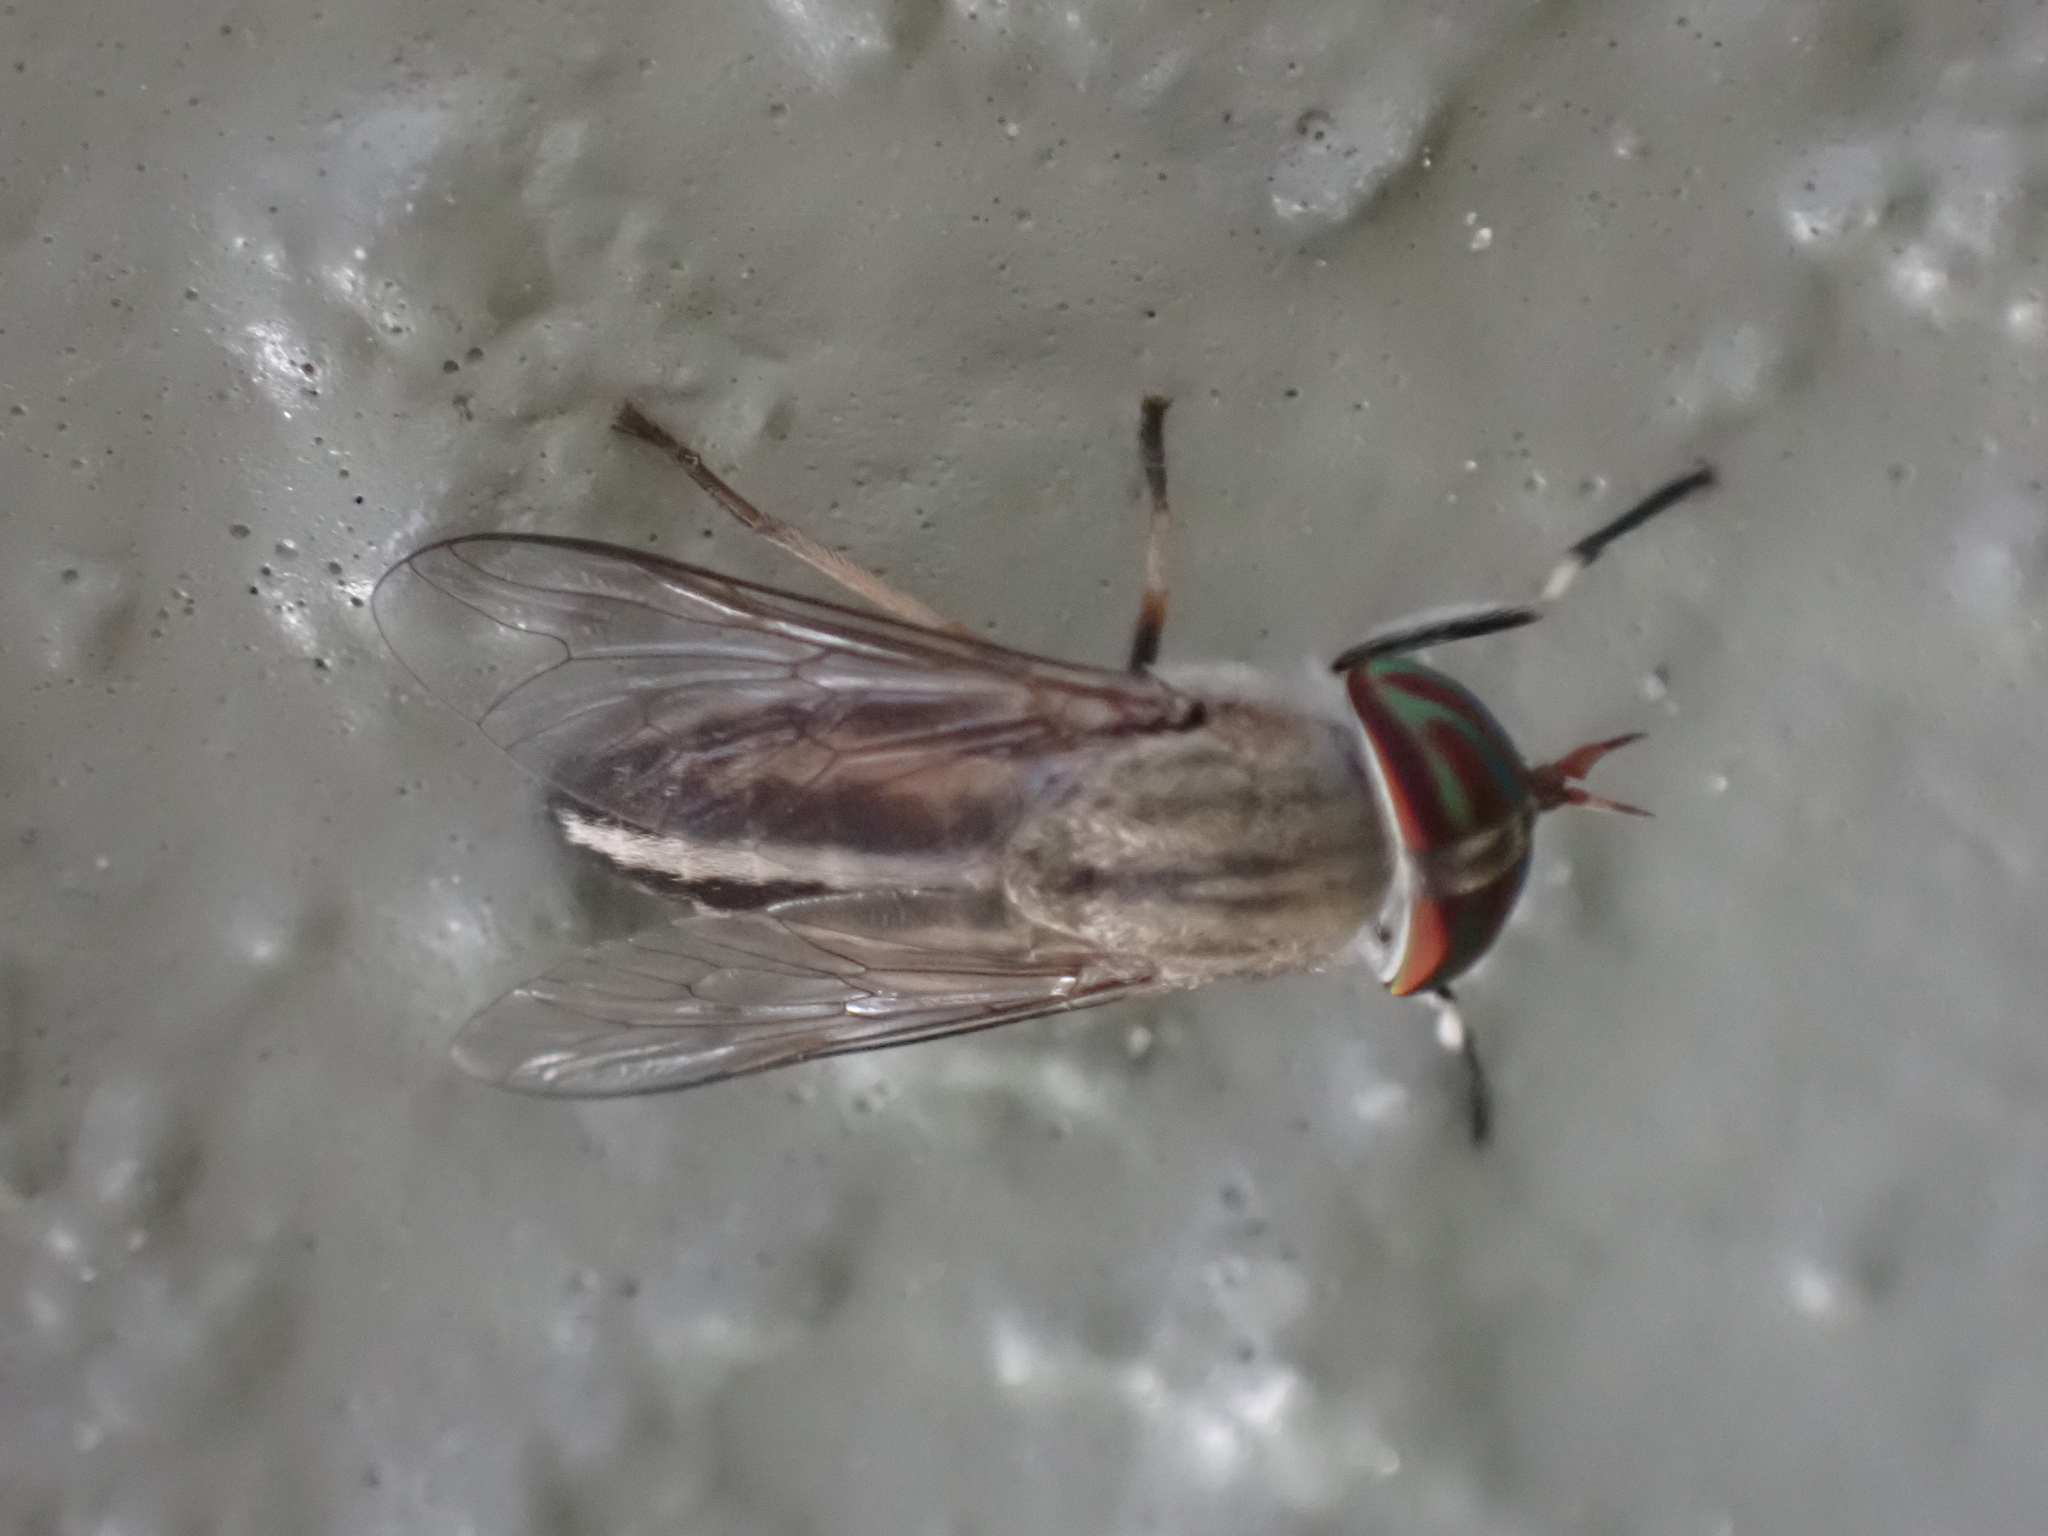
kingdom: Animalia
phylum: Arthropoda
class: Insecta
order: Diptera
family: Tabanidae
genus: Tabanus
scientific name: Tabanus lineola
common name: Striped horse fly
